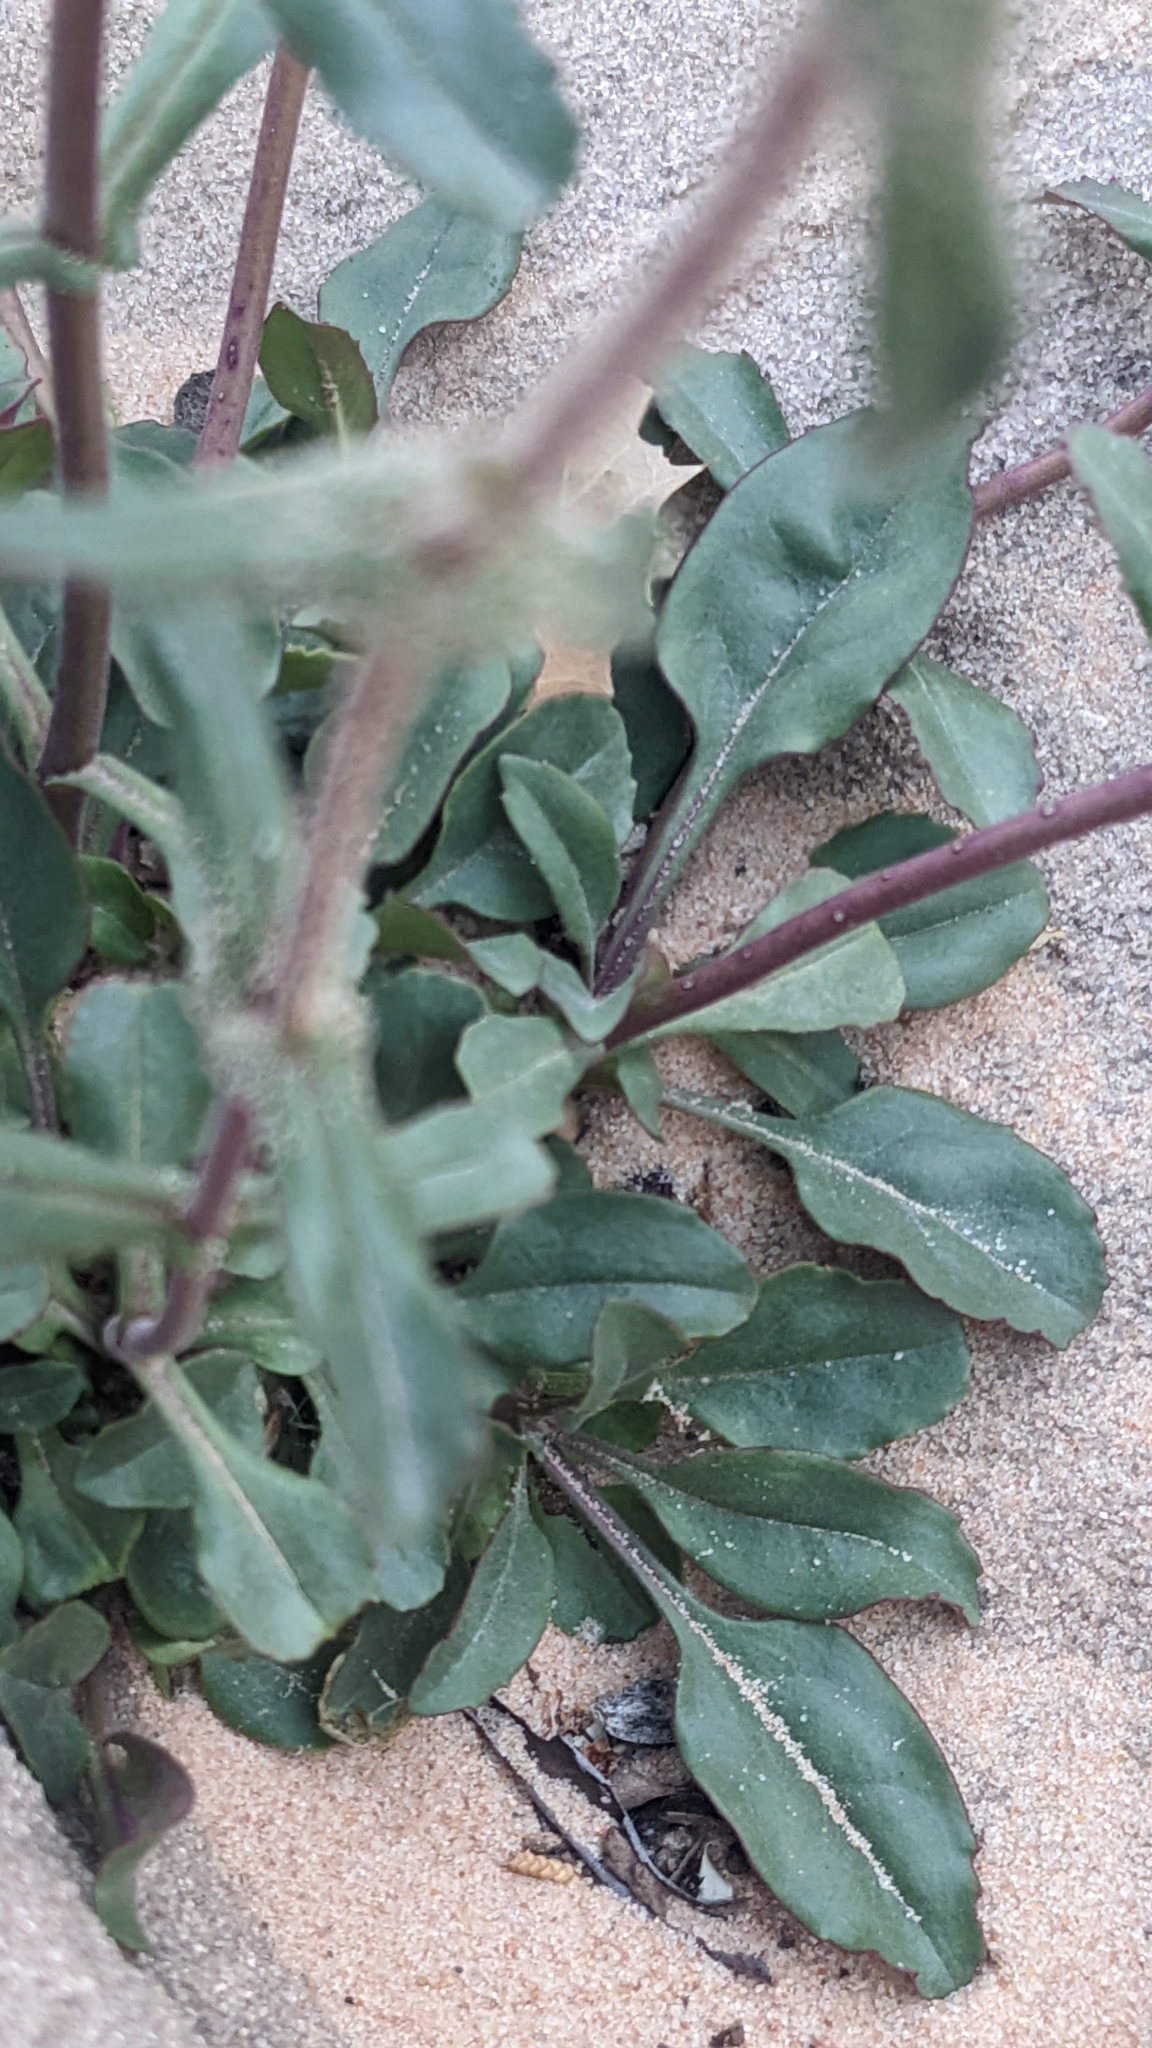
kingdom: Plantae
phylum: Tracheophyta
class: Magnoliopsida
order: Lamiales
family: Plantaginaceae
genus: Penstemon
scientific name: Penstemon humilis
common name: Low penstemon
